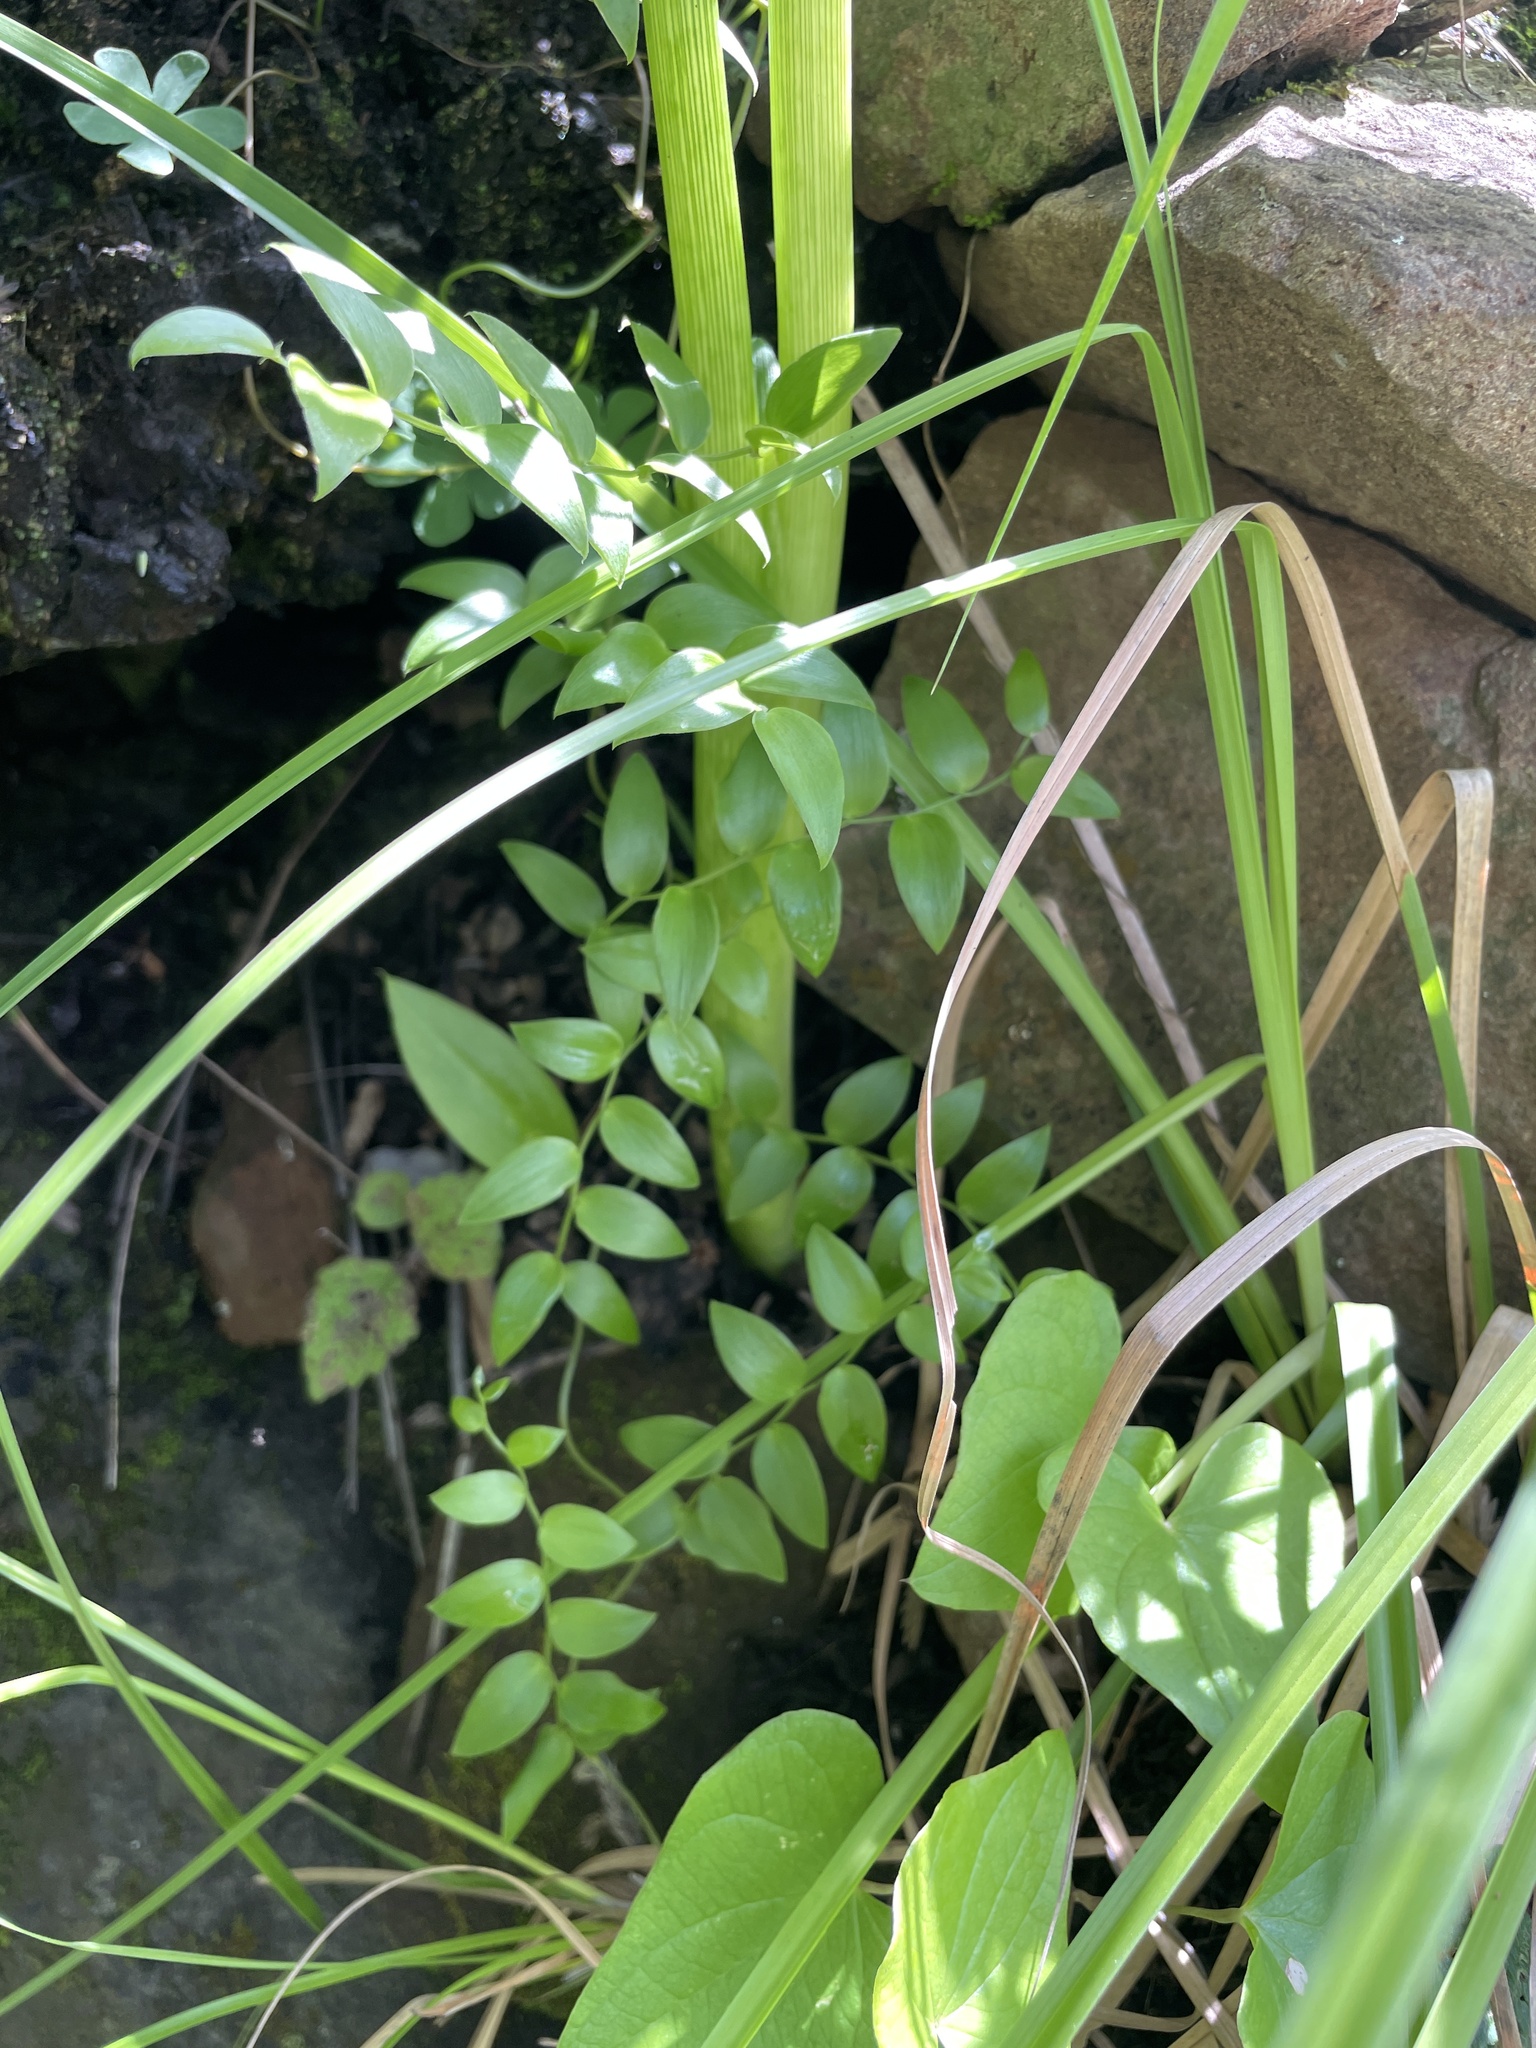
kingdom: Plantae
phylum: Tracheophyta
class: Liliopsida
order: Asparagales
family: Asparagaceae
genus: Asparagus
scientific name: Asparagus asparagoides
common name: African asparagus fern
